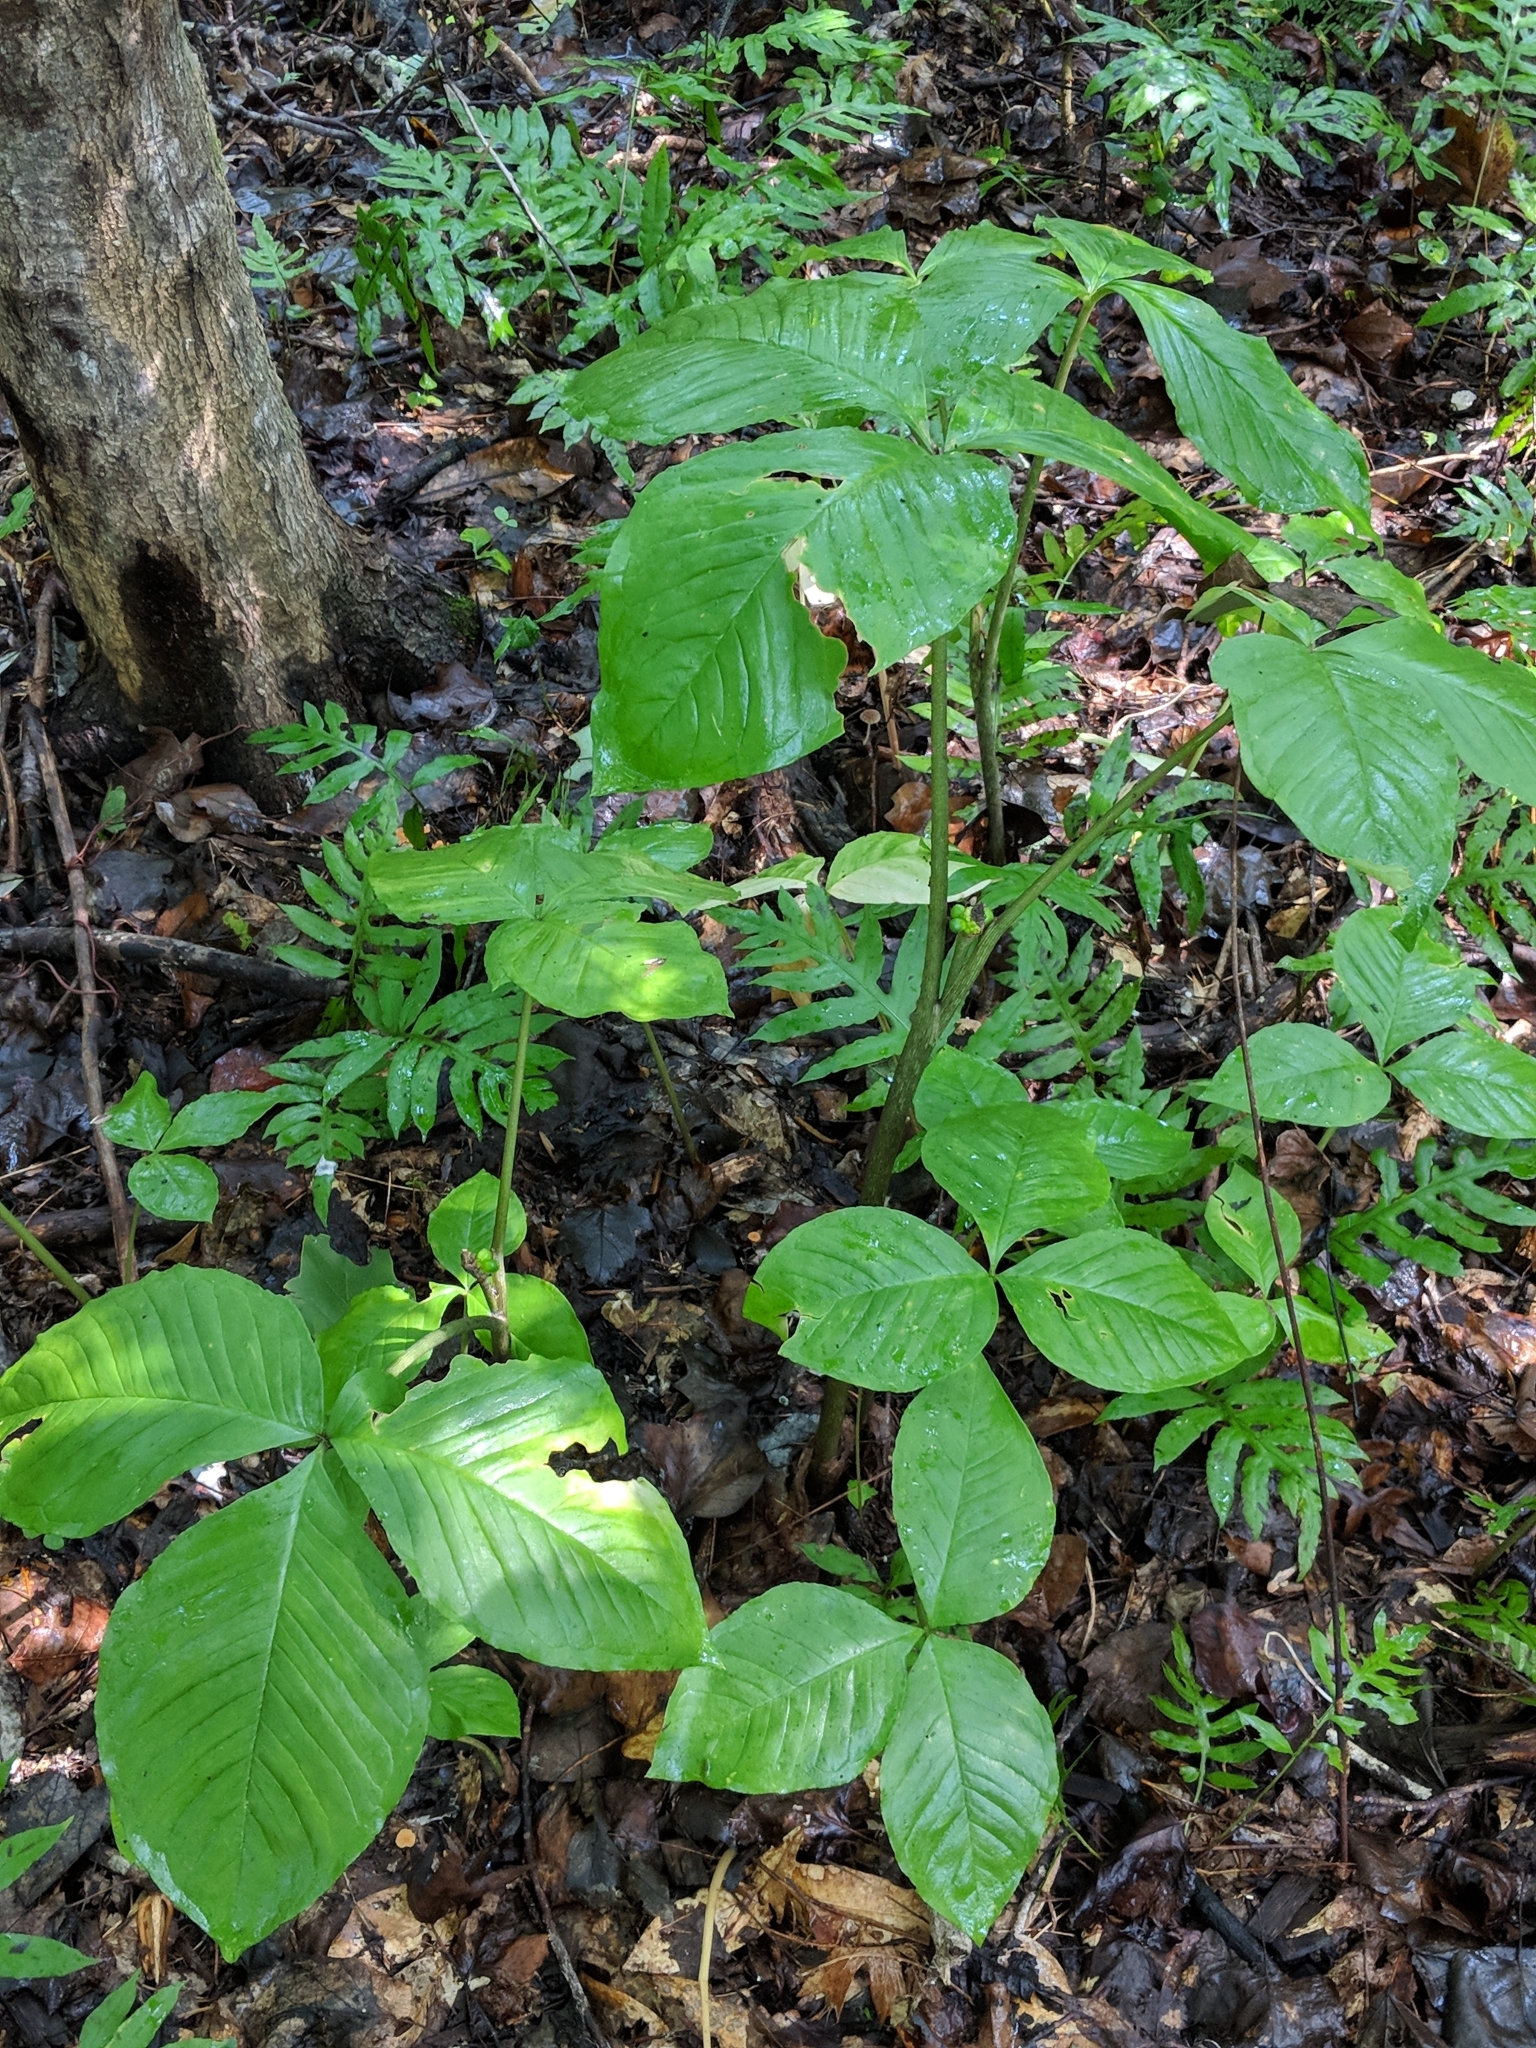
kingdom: Plantae
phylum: Tracheophyta
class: Liliopsida
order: Alismatales
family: Araceae
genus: Arisaema
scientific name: Arisaema triphyllum
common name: Jack-in-the-pulpit
